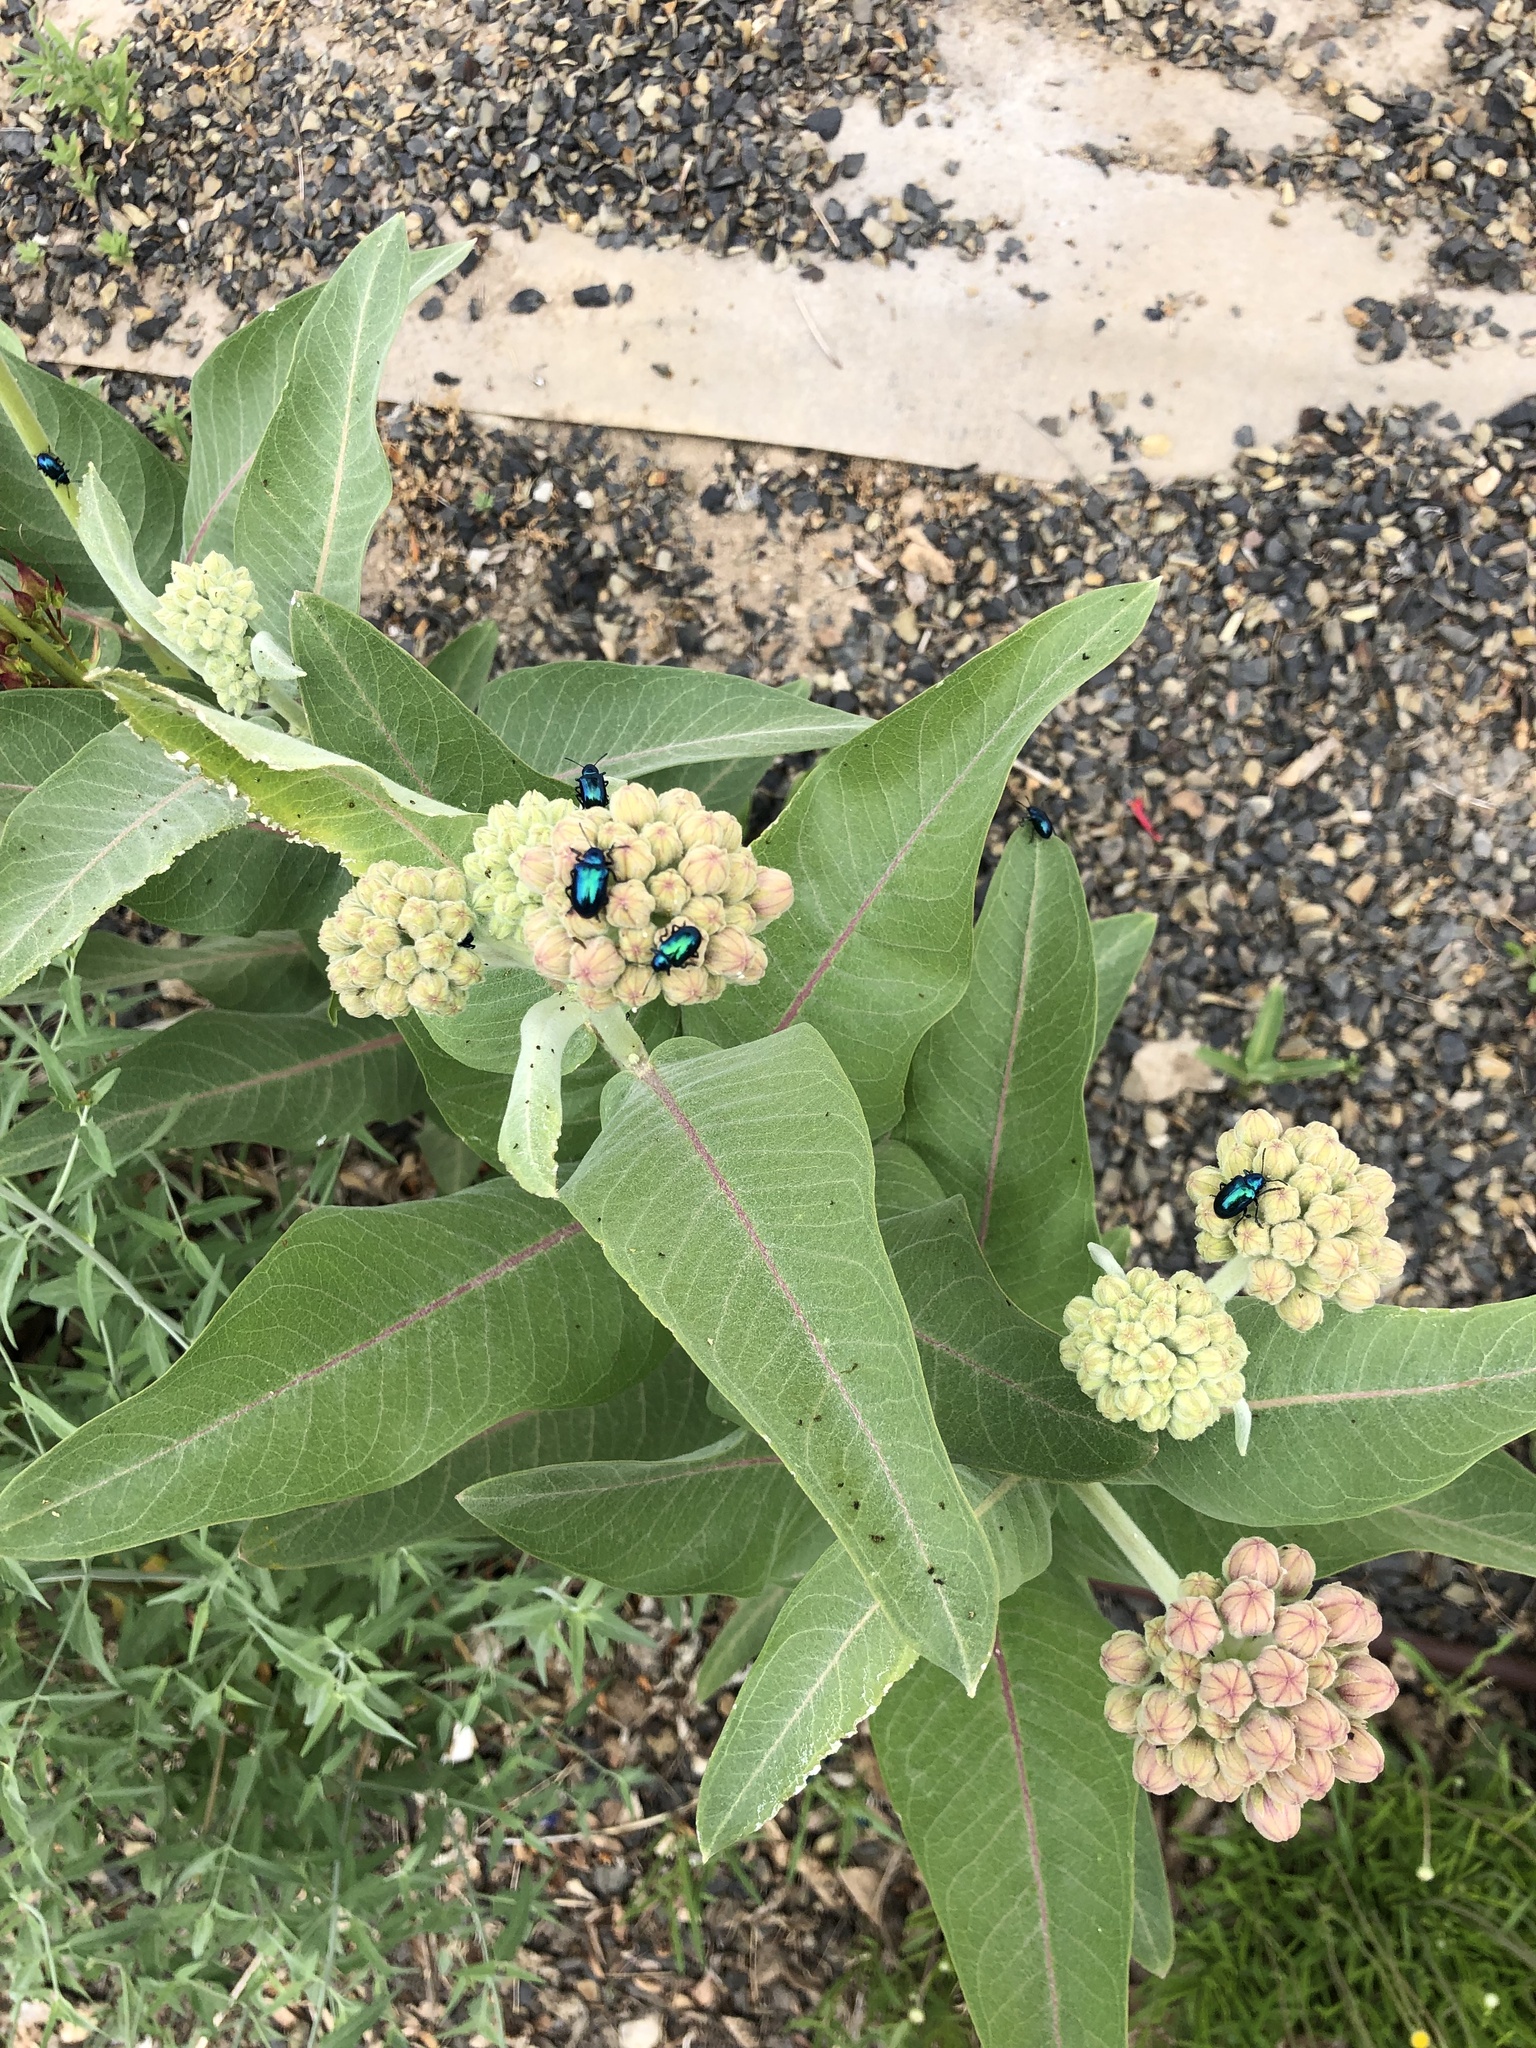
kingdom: Animalia
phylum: Arthropoda
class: Insecta
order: Coleoptera
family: Chrysomelidae
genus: Chrysochus
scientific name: Chrysochus cobaltinus
